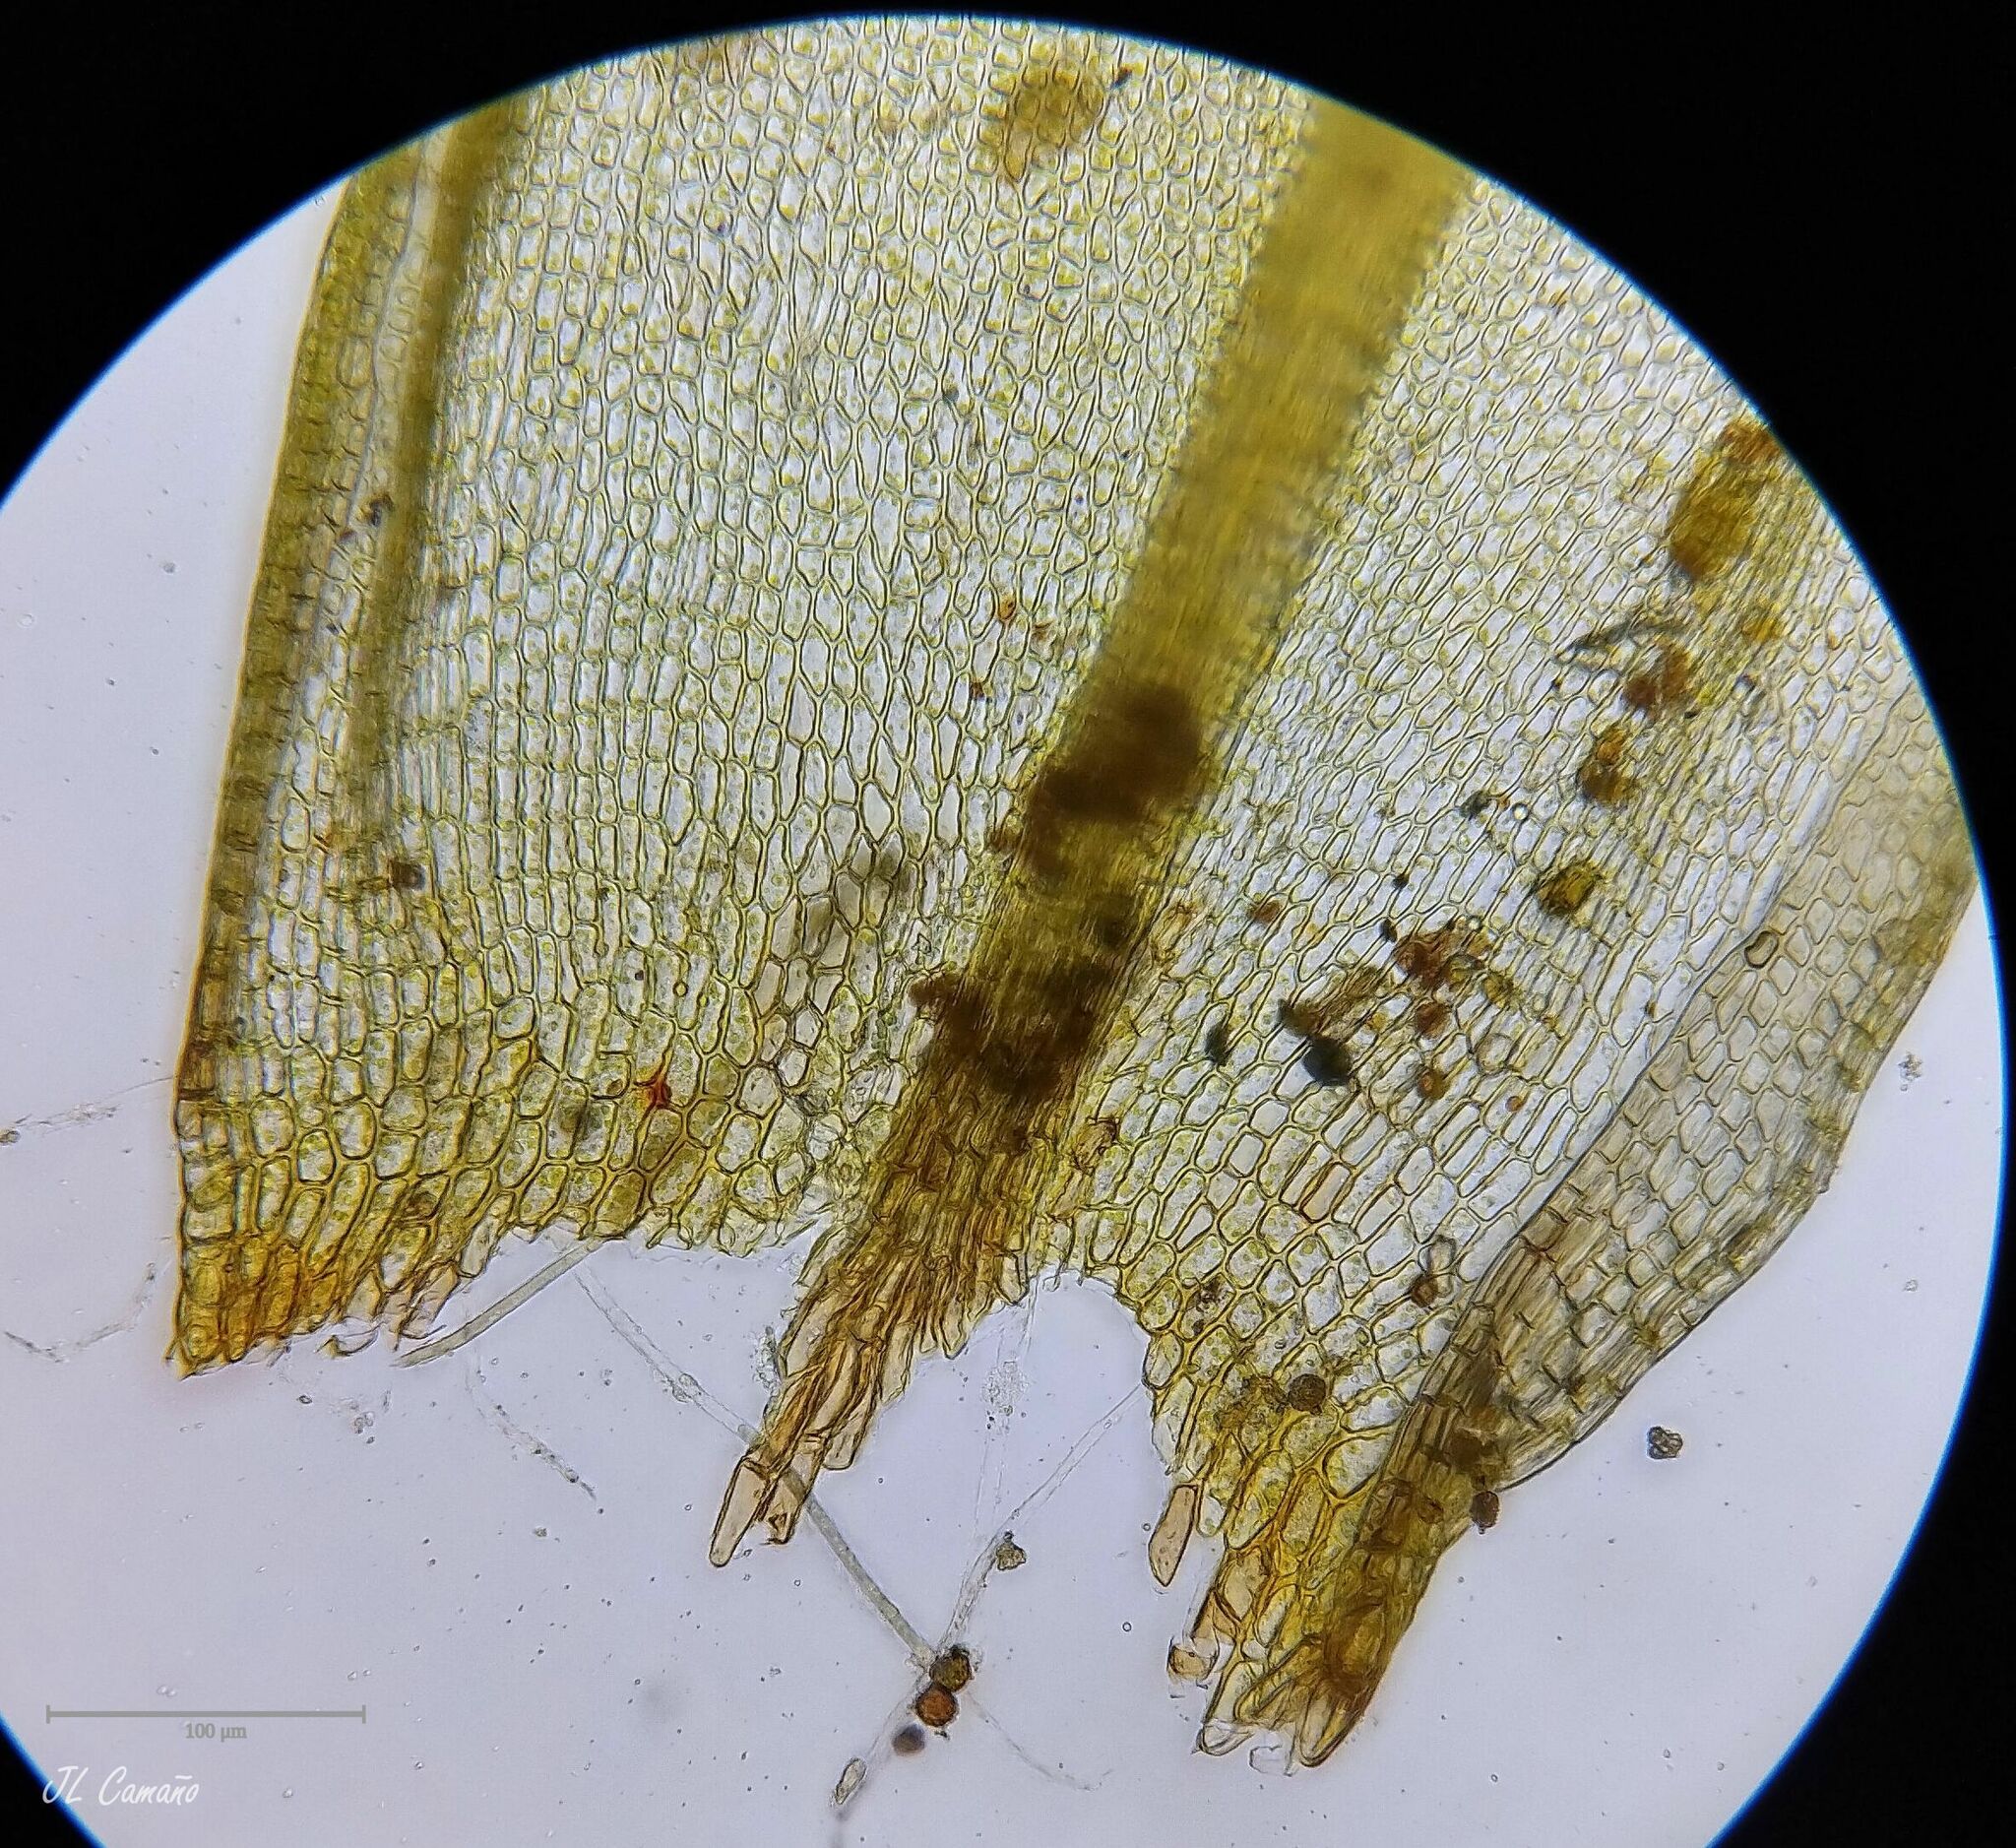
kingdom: Plantae
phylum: Bryophyta
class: Bryopsida
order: Orthotrichales
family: Orthotrichaceae
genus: Orthotrichum
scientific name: Orthotrichum anomalum
